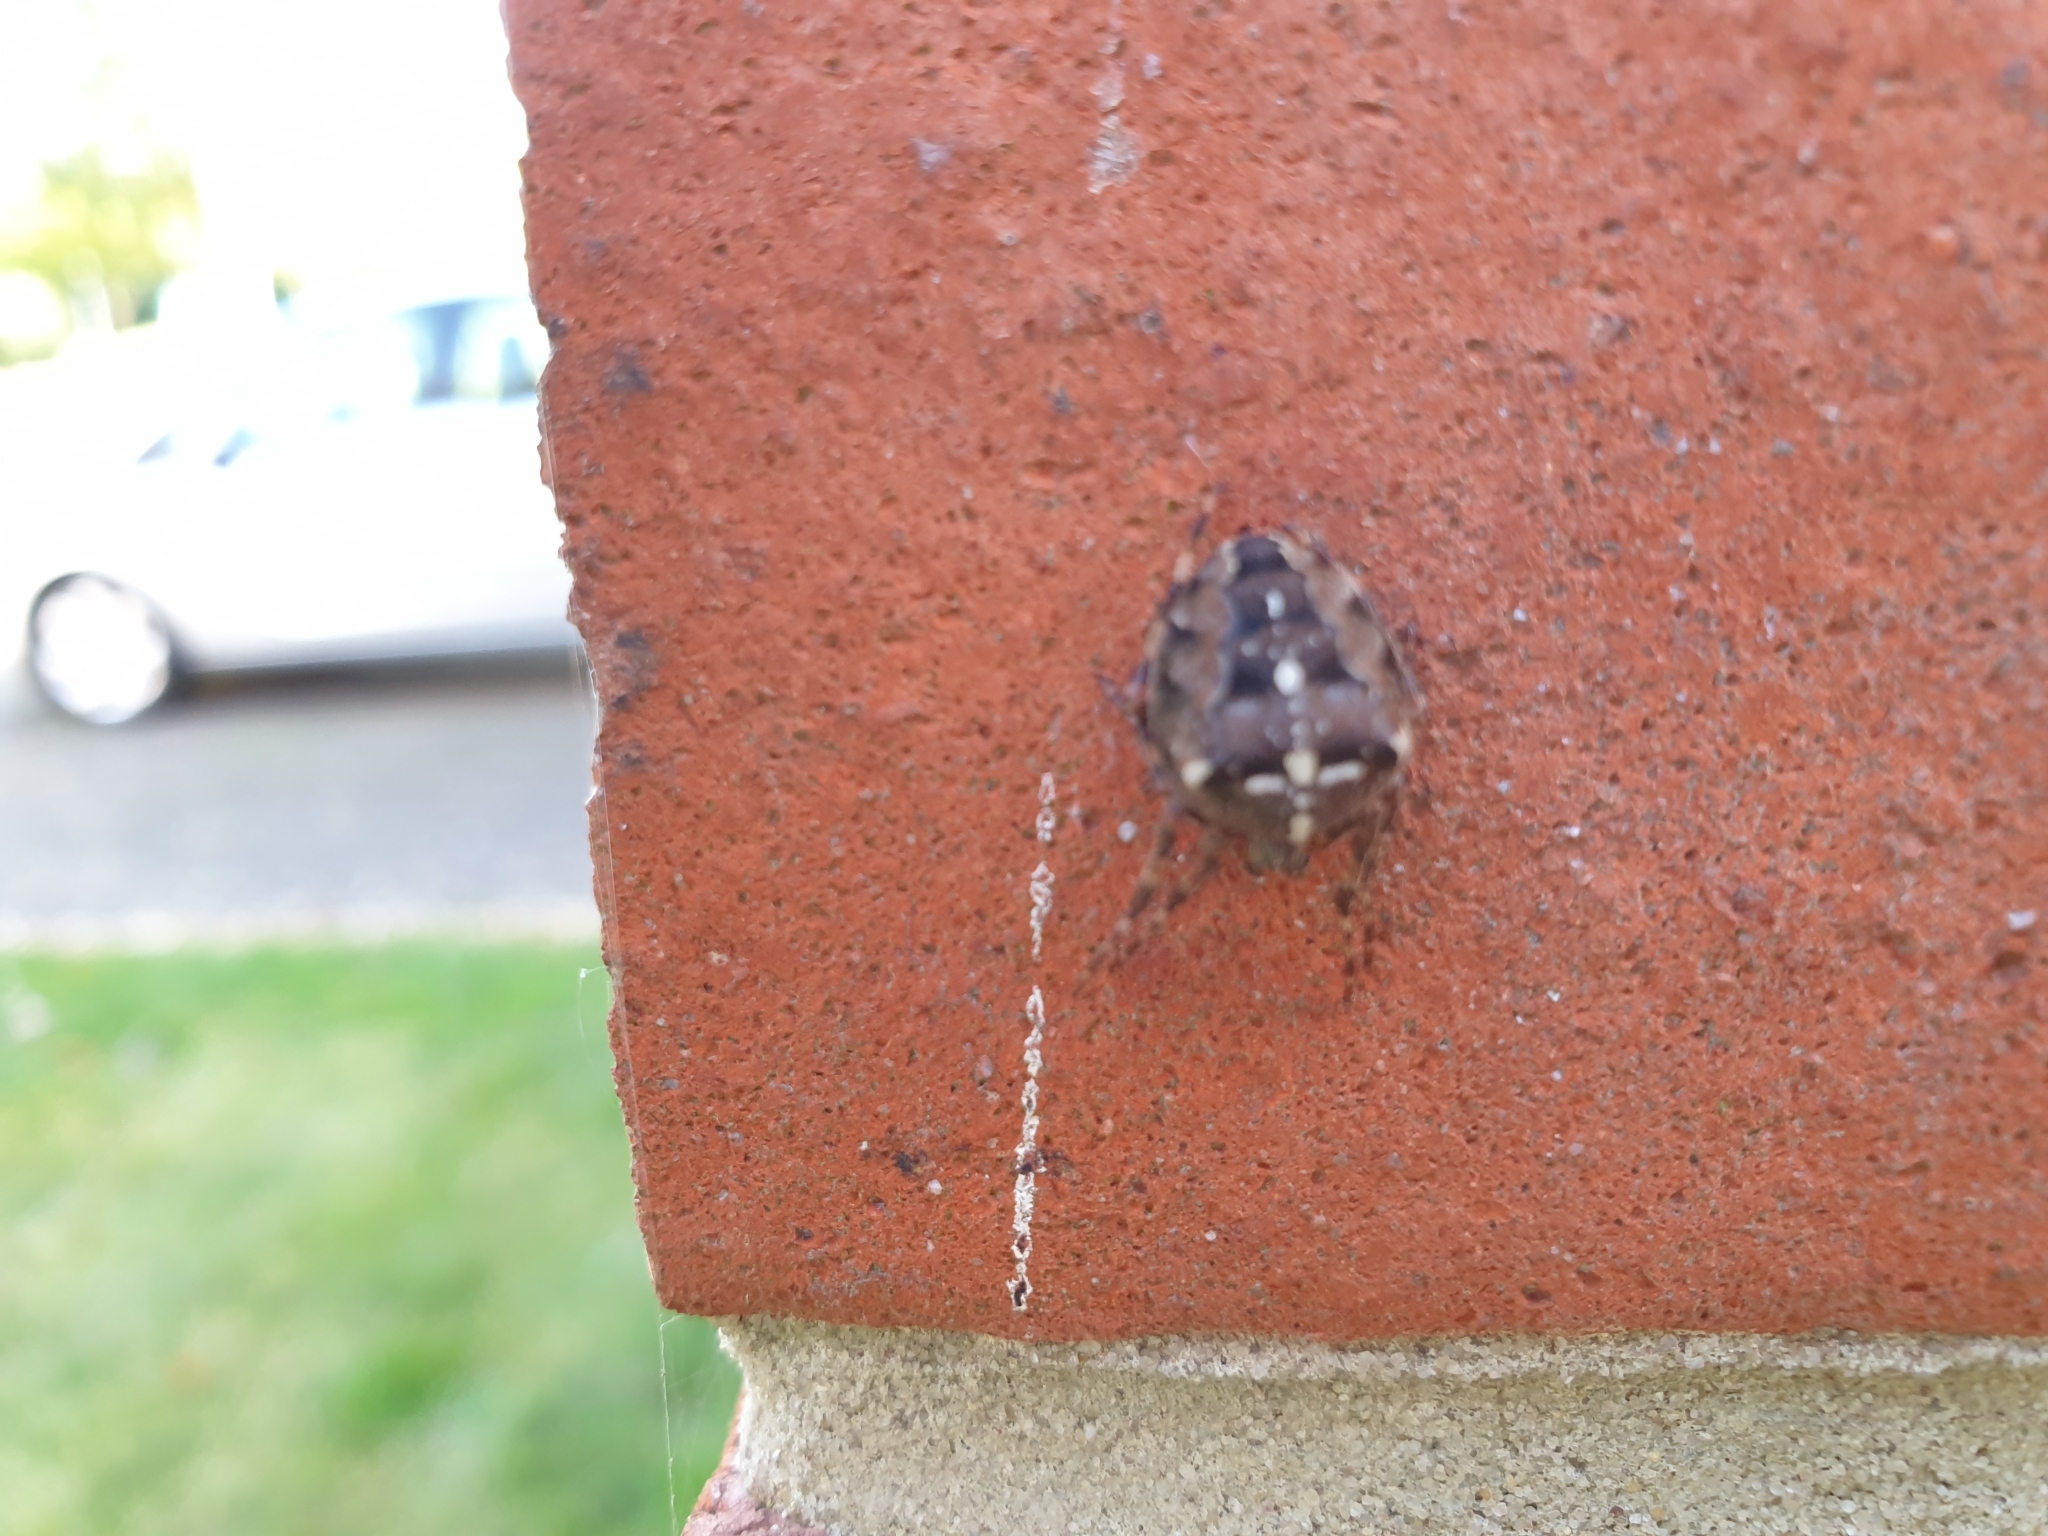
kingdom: Animalia
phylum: Arthropoda
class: Arachnida
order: Araneae
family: Araneidae
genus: Araneus
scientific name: Araneus diadematus
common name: Cross orbweaver
